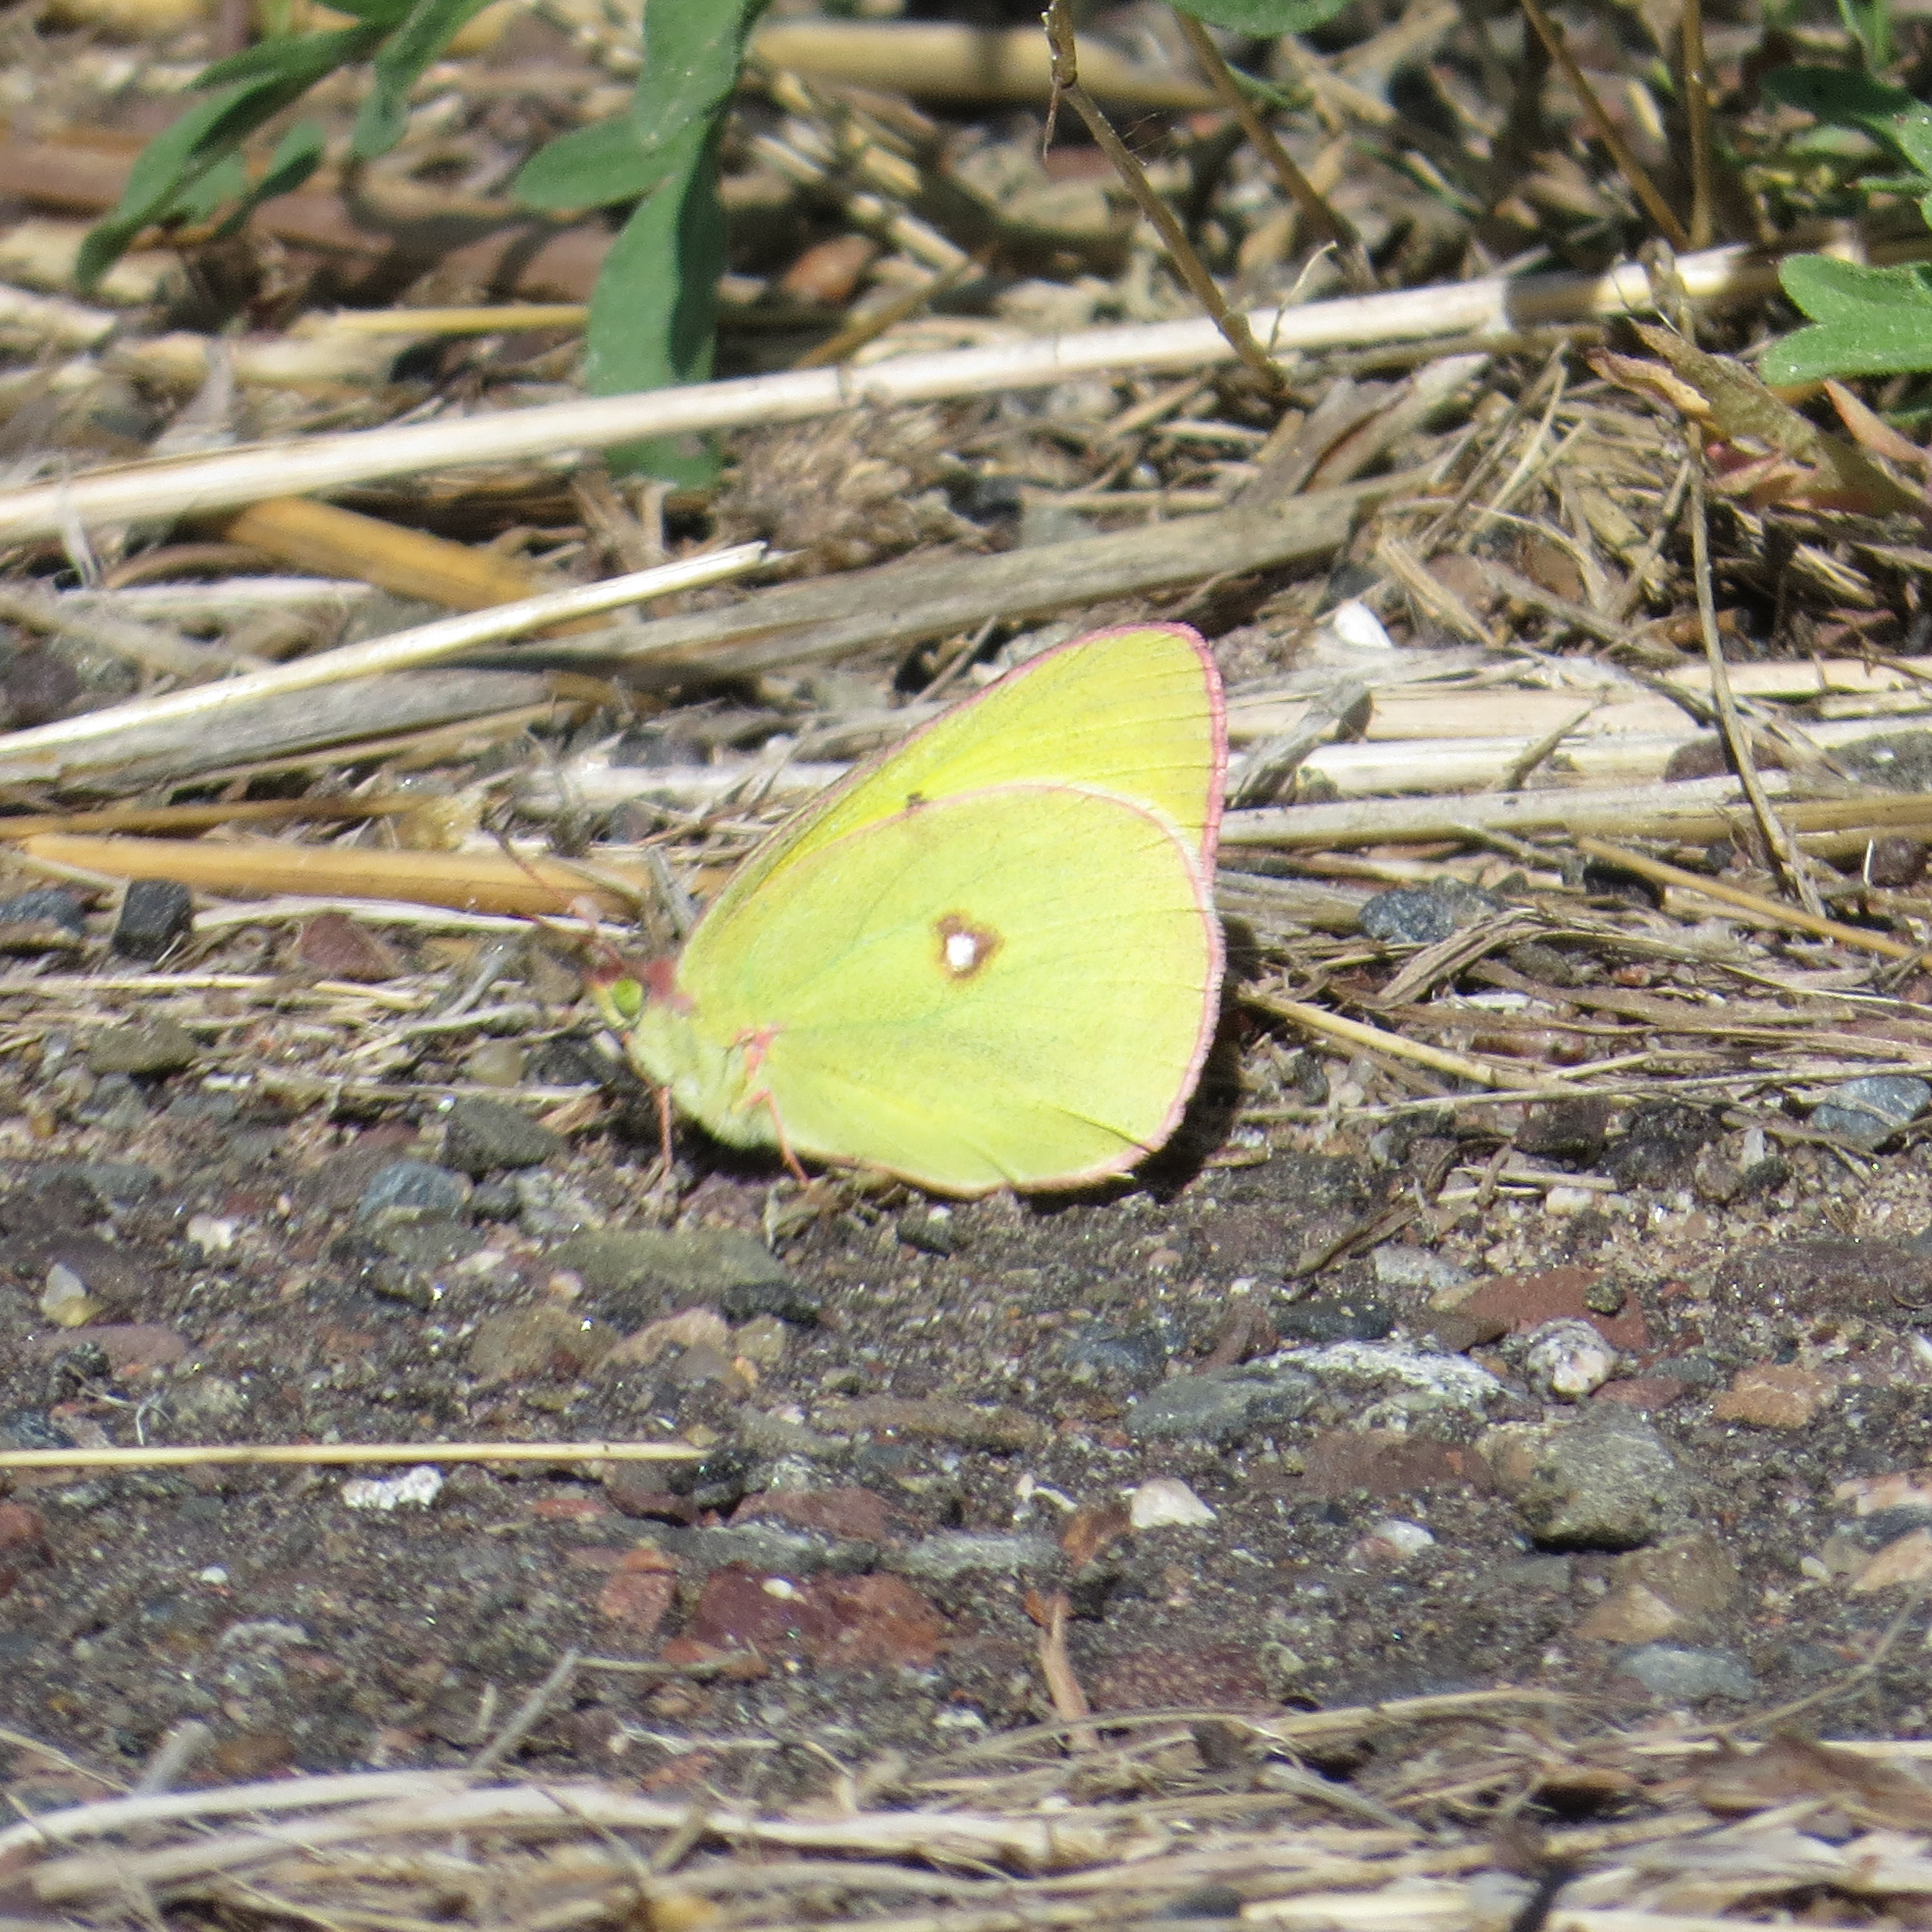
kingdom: Animalia
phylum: Arthropoda
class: Insecta
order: Lepidoptera
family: Pieridae
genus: Colias
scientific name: Colias interior
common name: Pink-edged sulphur
